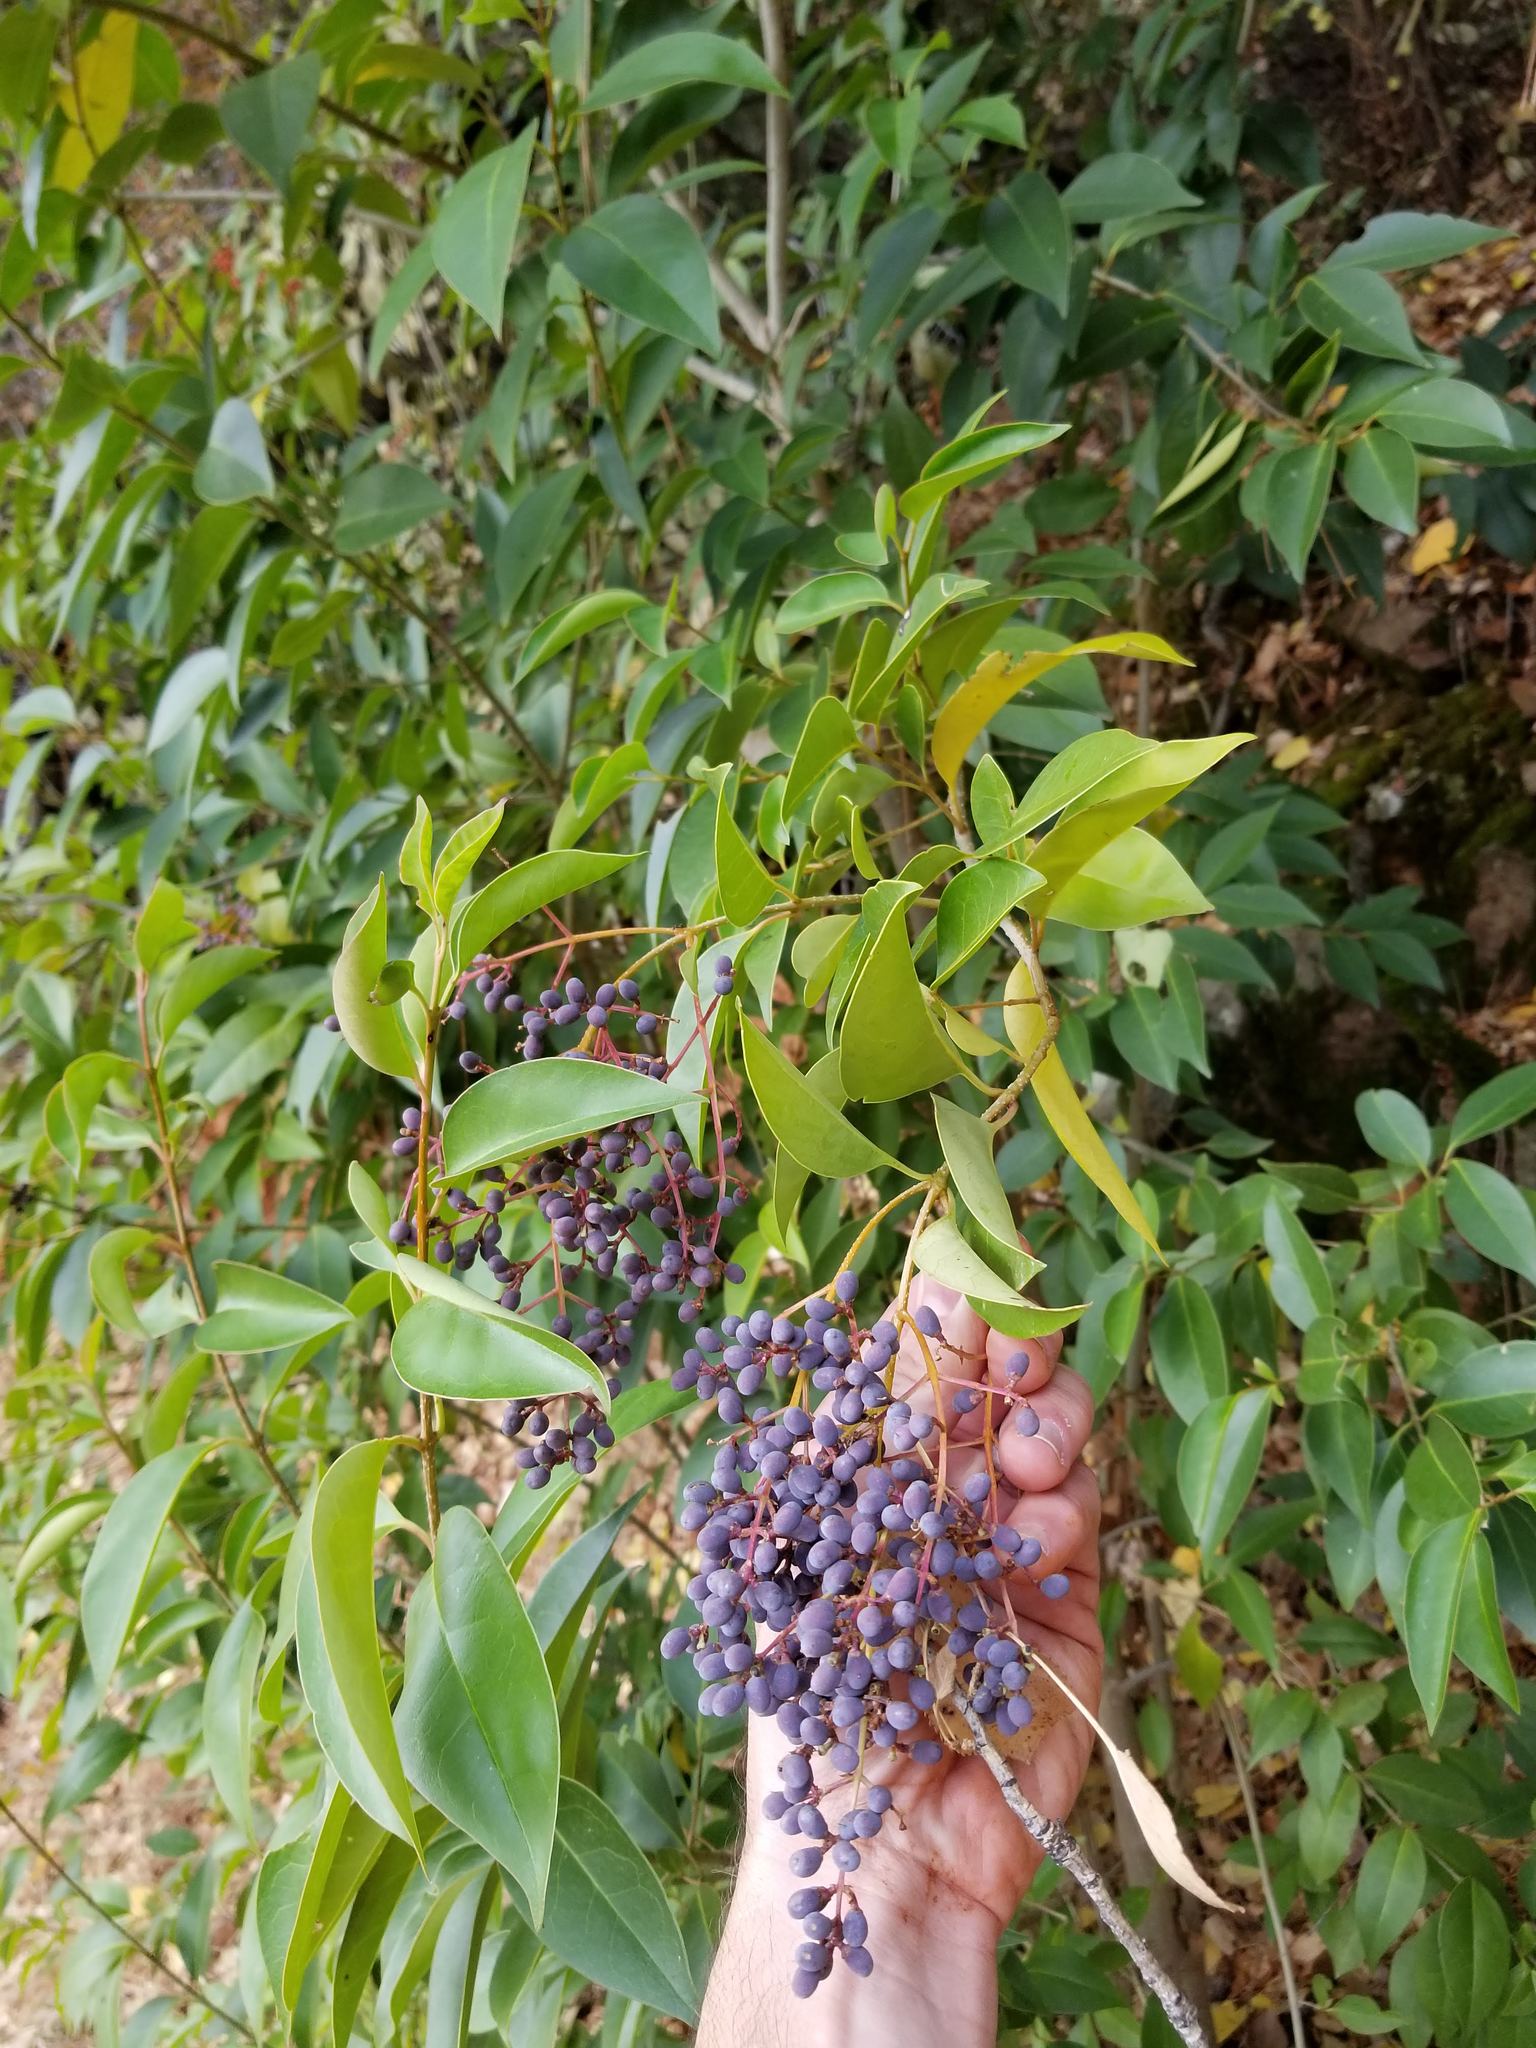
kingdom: Plantae
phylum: Tracheophyta
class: Magnoliopsida
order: Lamiales
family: Oleaceae
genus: Ligustrum
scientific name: Ligustrum lucidum
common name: Glossy privet
